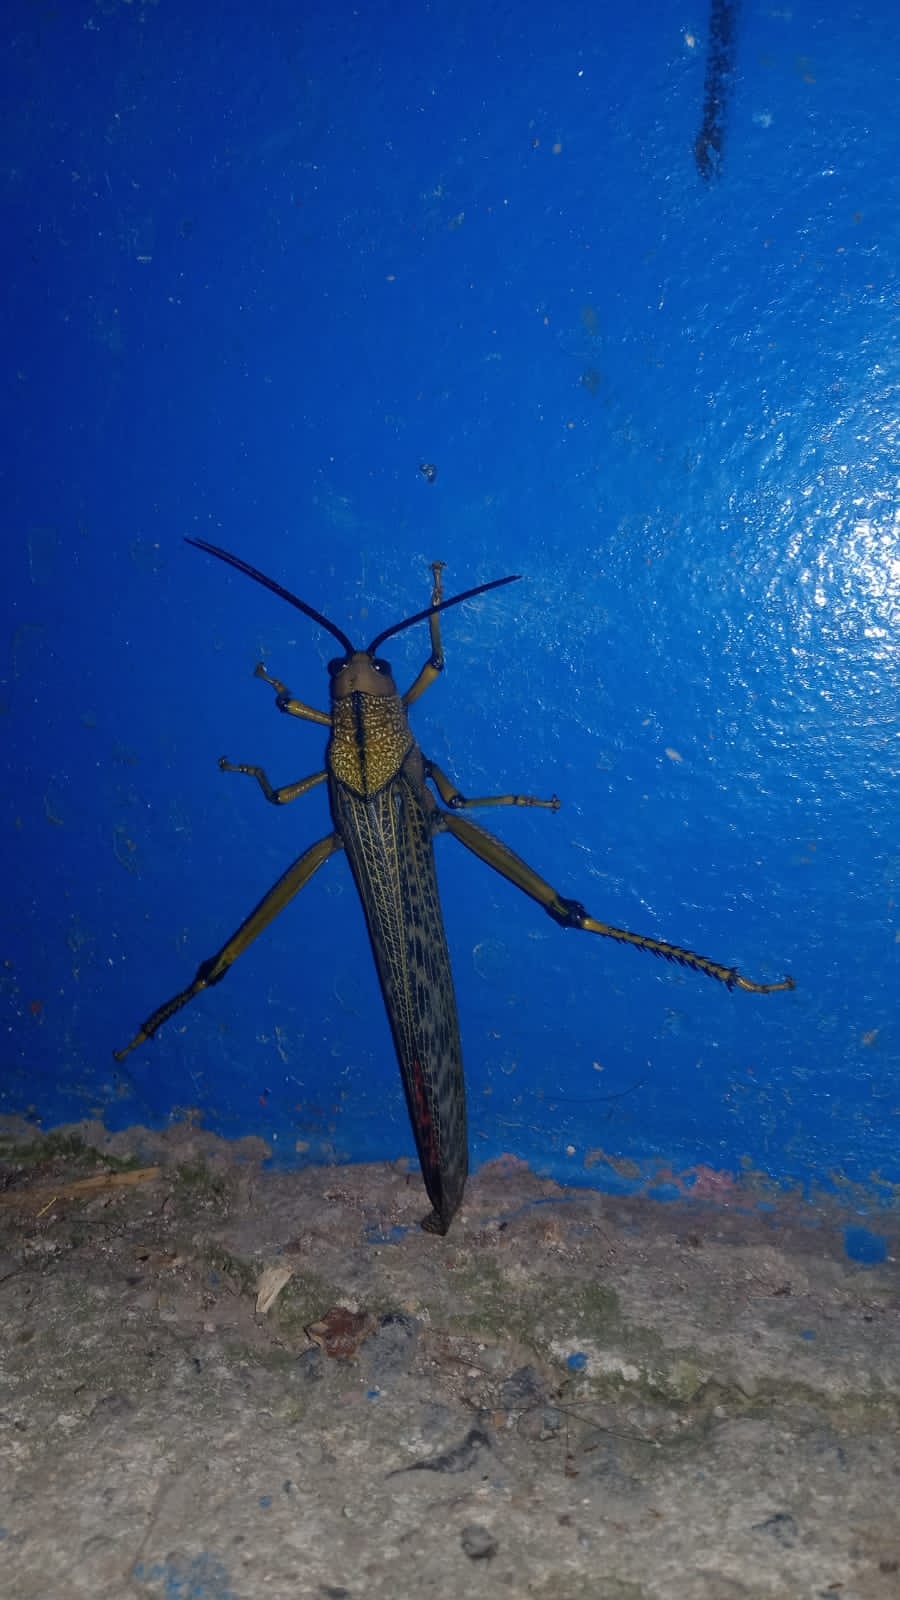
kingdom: Animalia
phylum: Arthropoda
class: Insecta
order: Orthoptera
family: Romaleidae
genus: Tropidacris
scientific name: Tropidacris cristata
